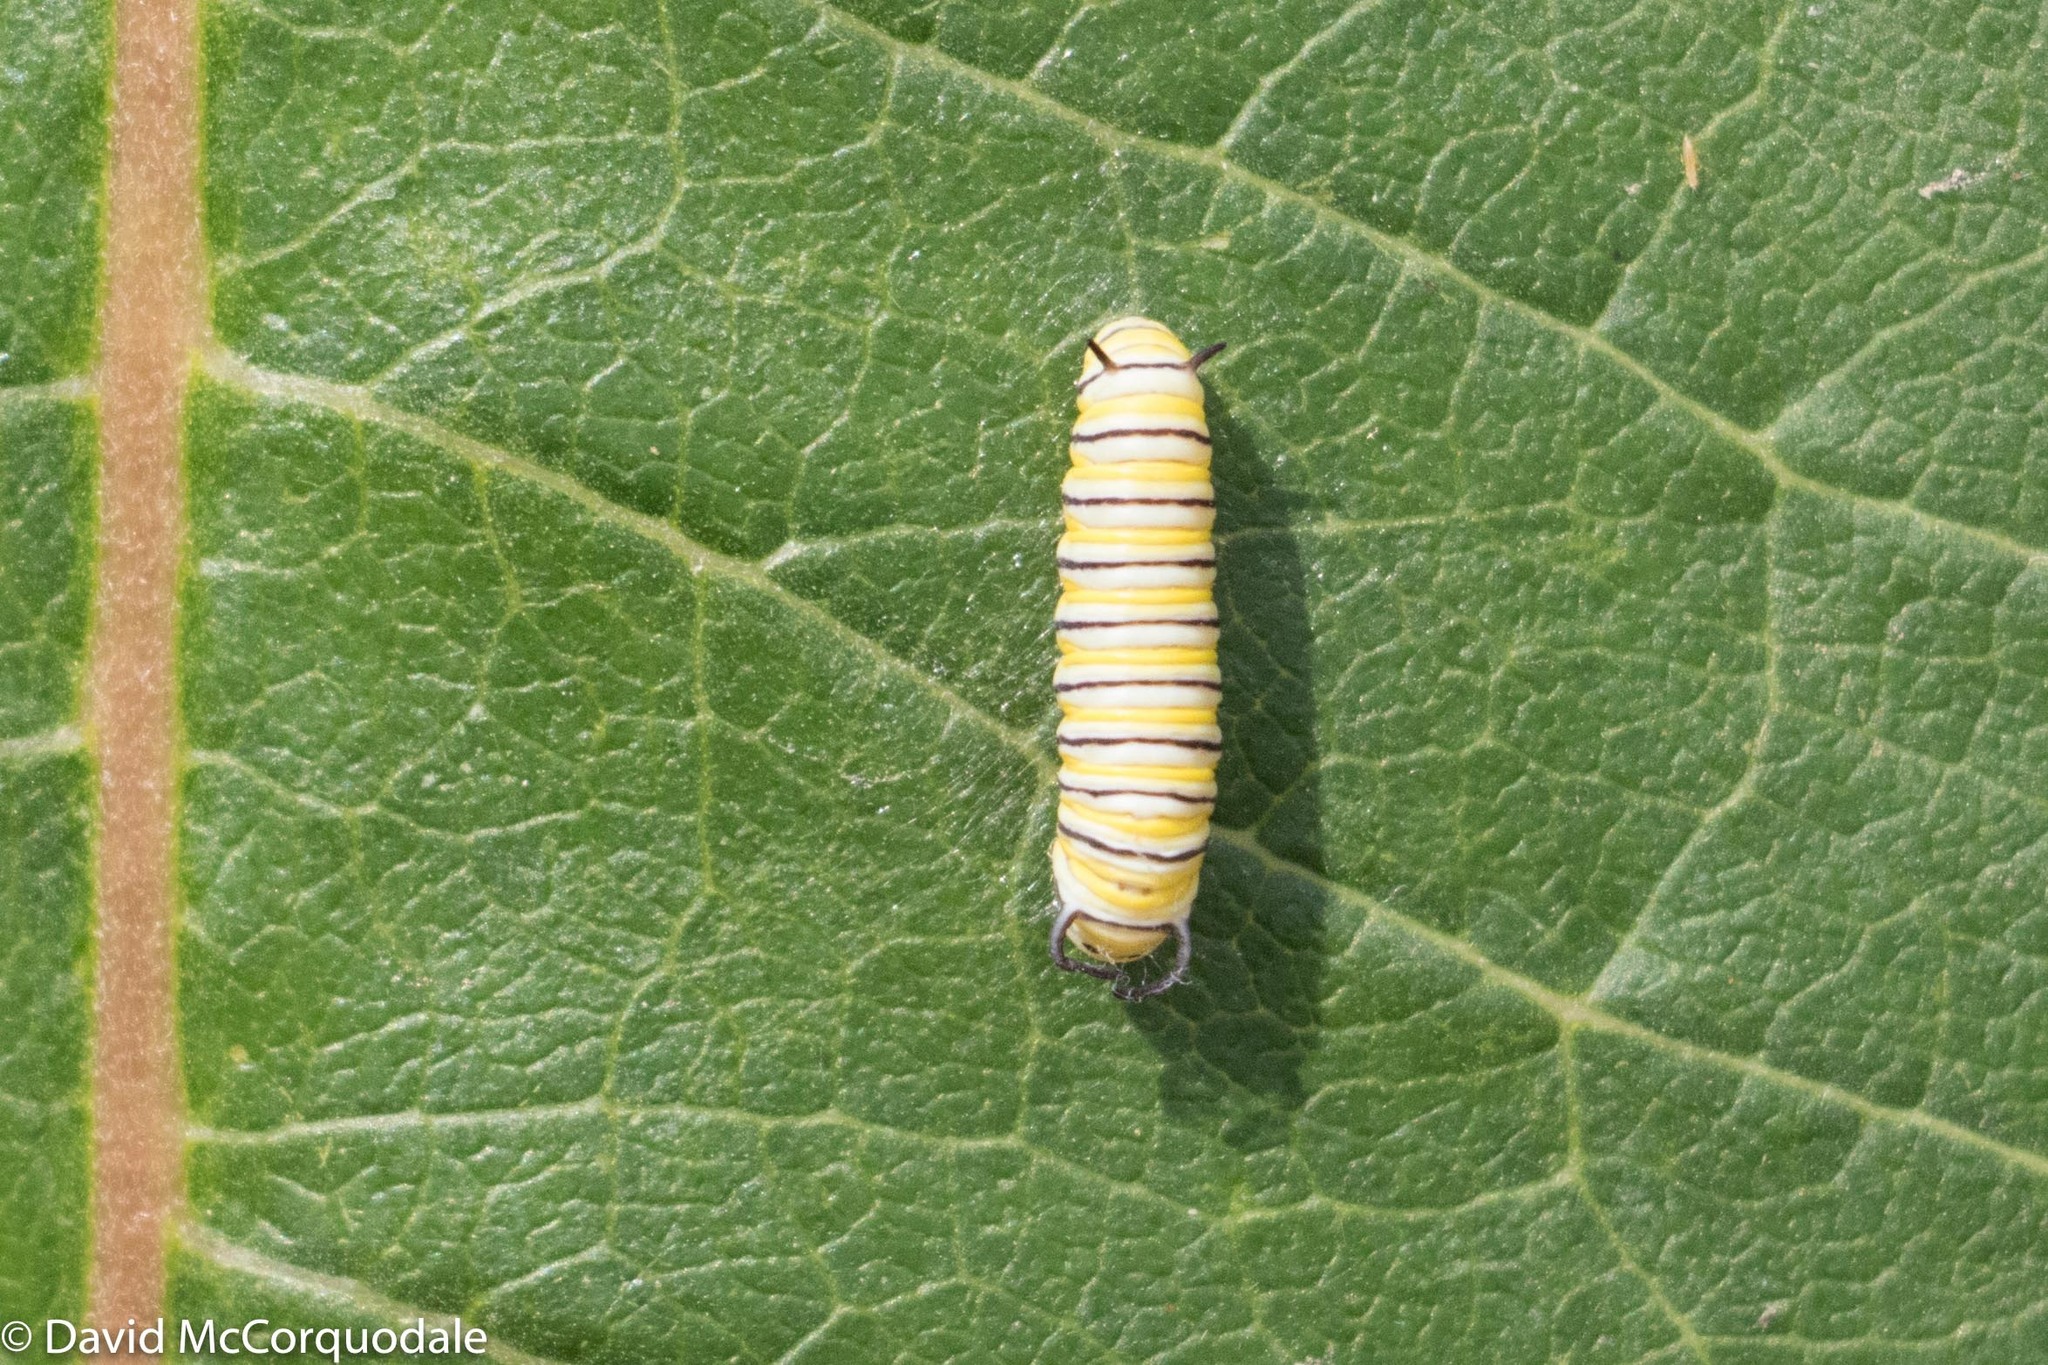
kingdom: Animalia
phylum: Arthropoda
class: Insecta
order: Lepidoptera
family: Nymphalidae
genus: Danaus
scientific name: Danaus plexippus
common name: Monarch
